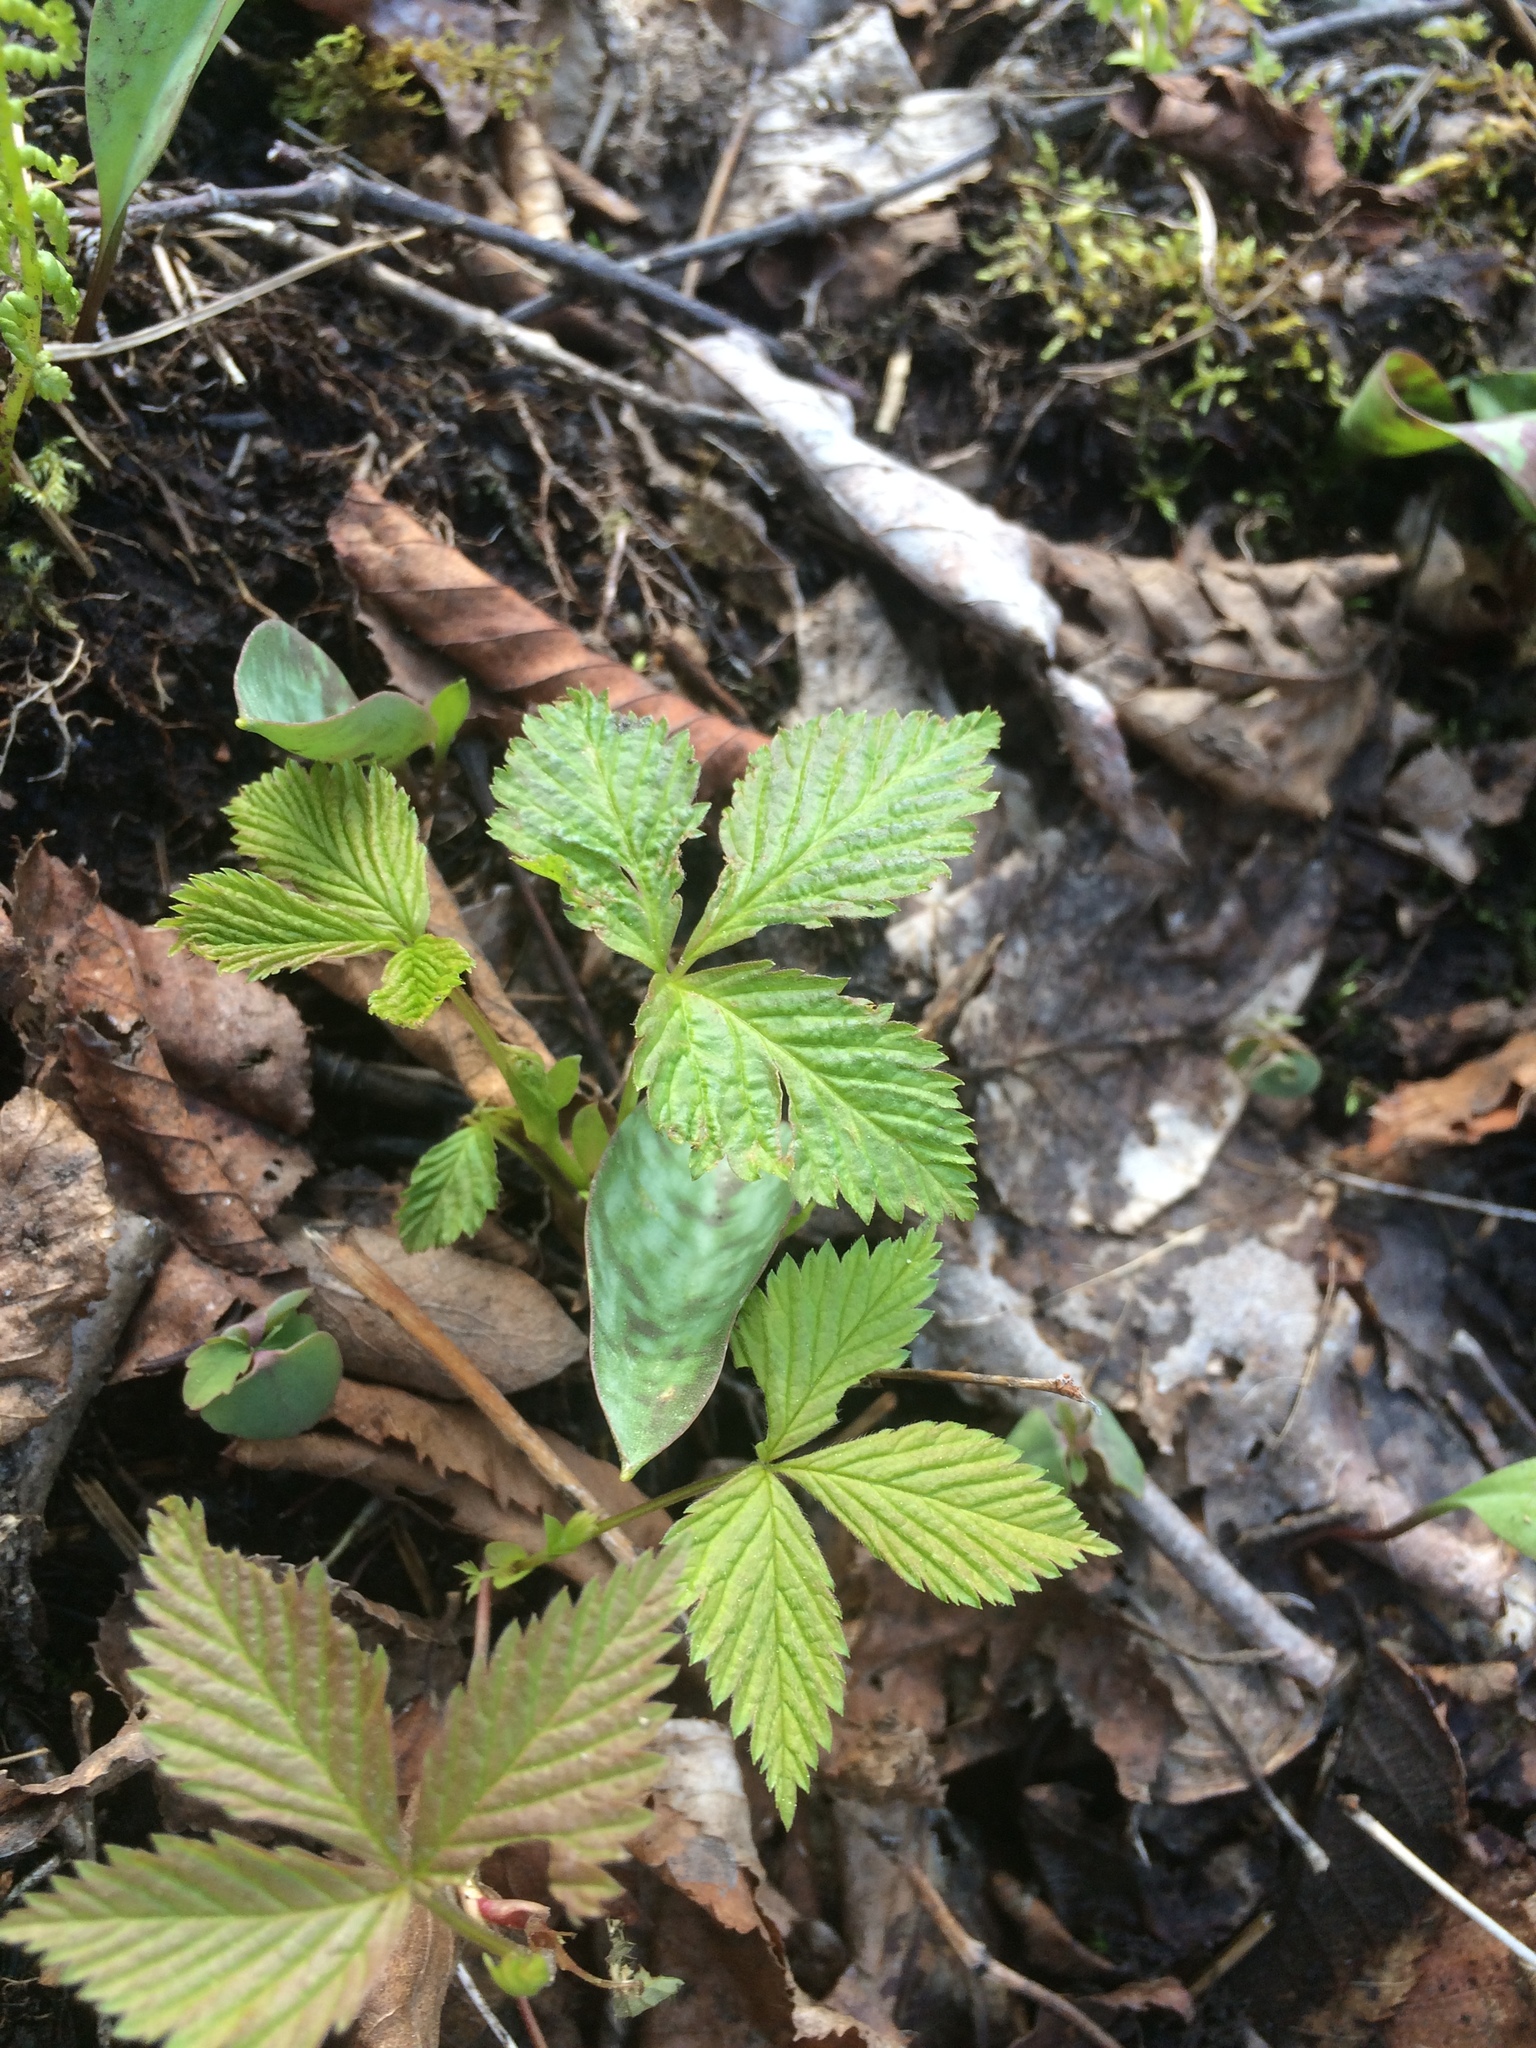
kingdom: Plantae
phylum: Tracheophyta
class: Magnoliopsida
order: Rosales
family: Rosaceae
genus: Rubus
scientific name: Rubus pubescens
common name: Dwarf raspberry
